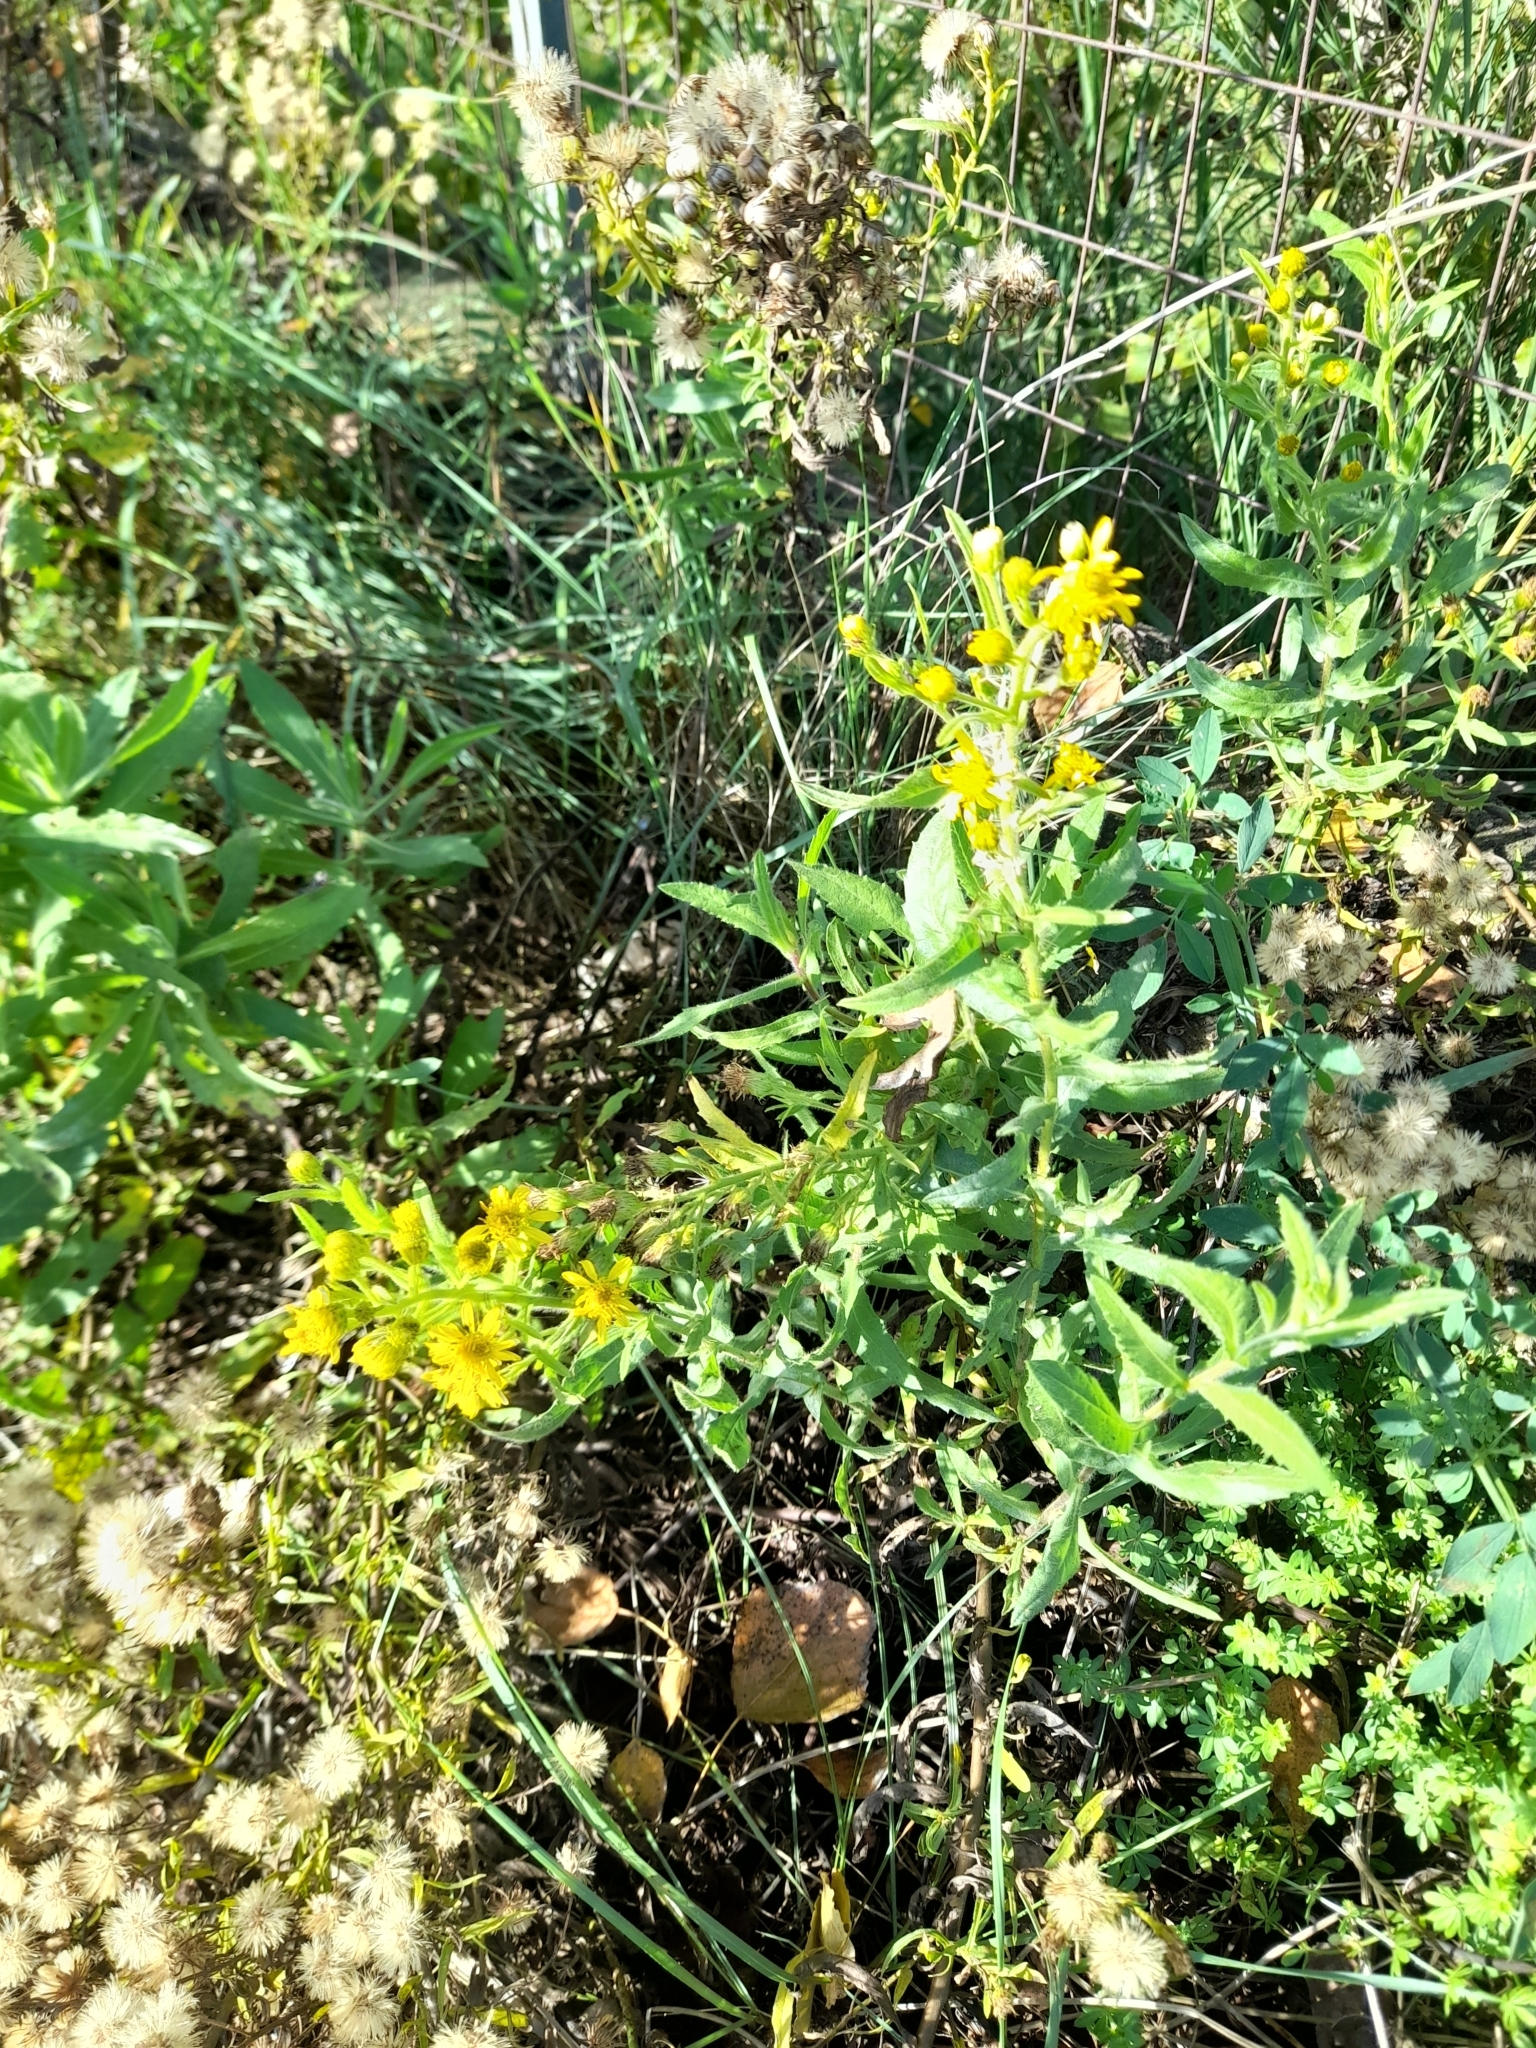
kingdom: Plantae
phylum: Tracheophyta
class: Magnoliopsida
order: Asterales
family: Asteraceae
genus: Dittrichia
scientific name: Dittrichia viscosa
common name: Woody fleabane
